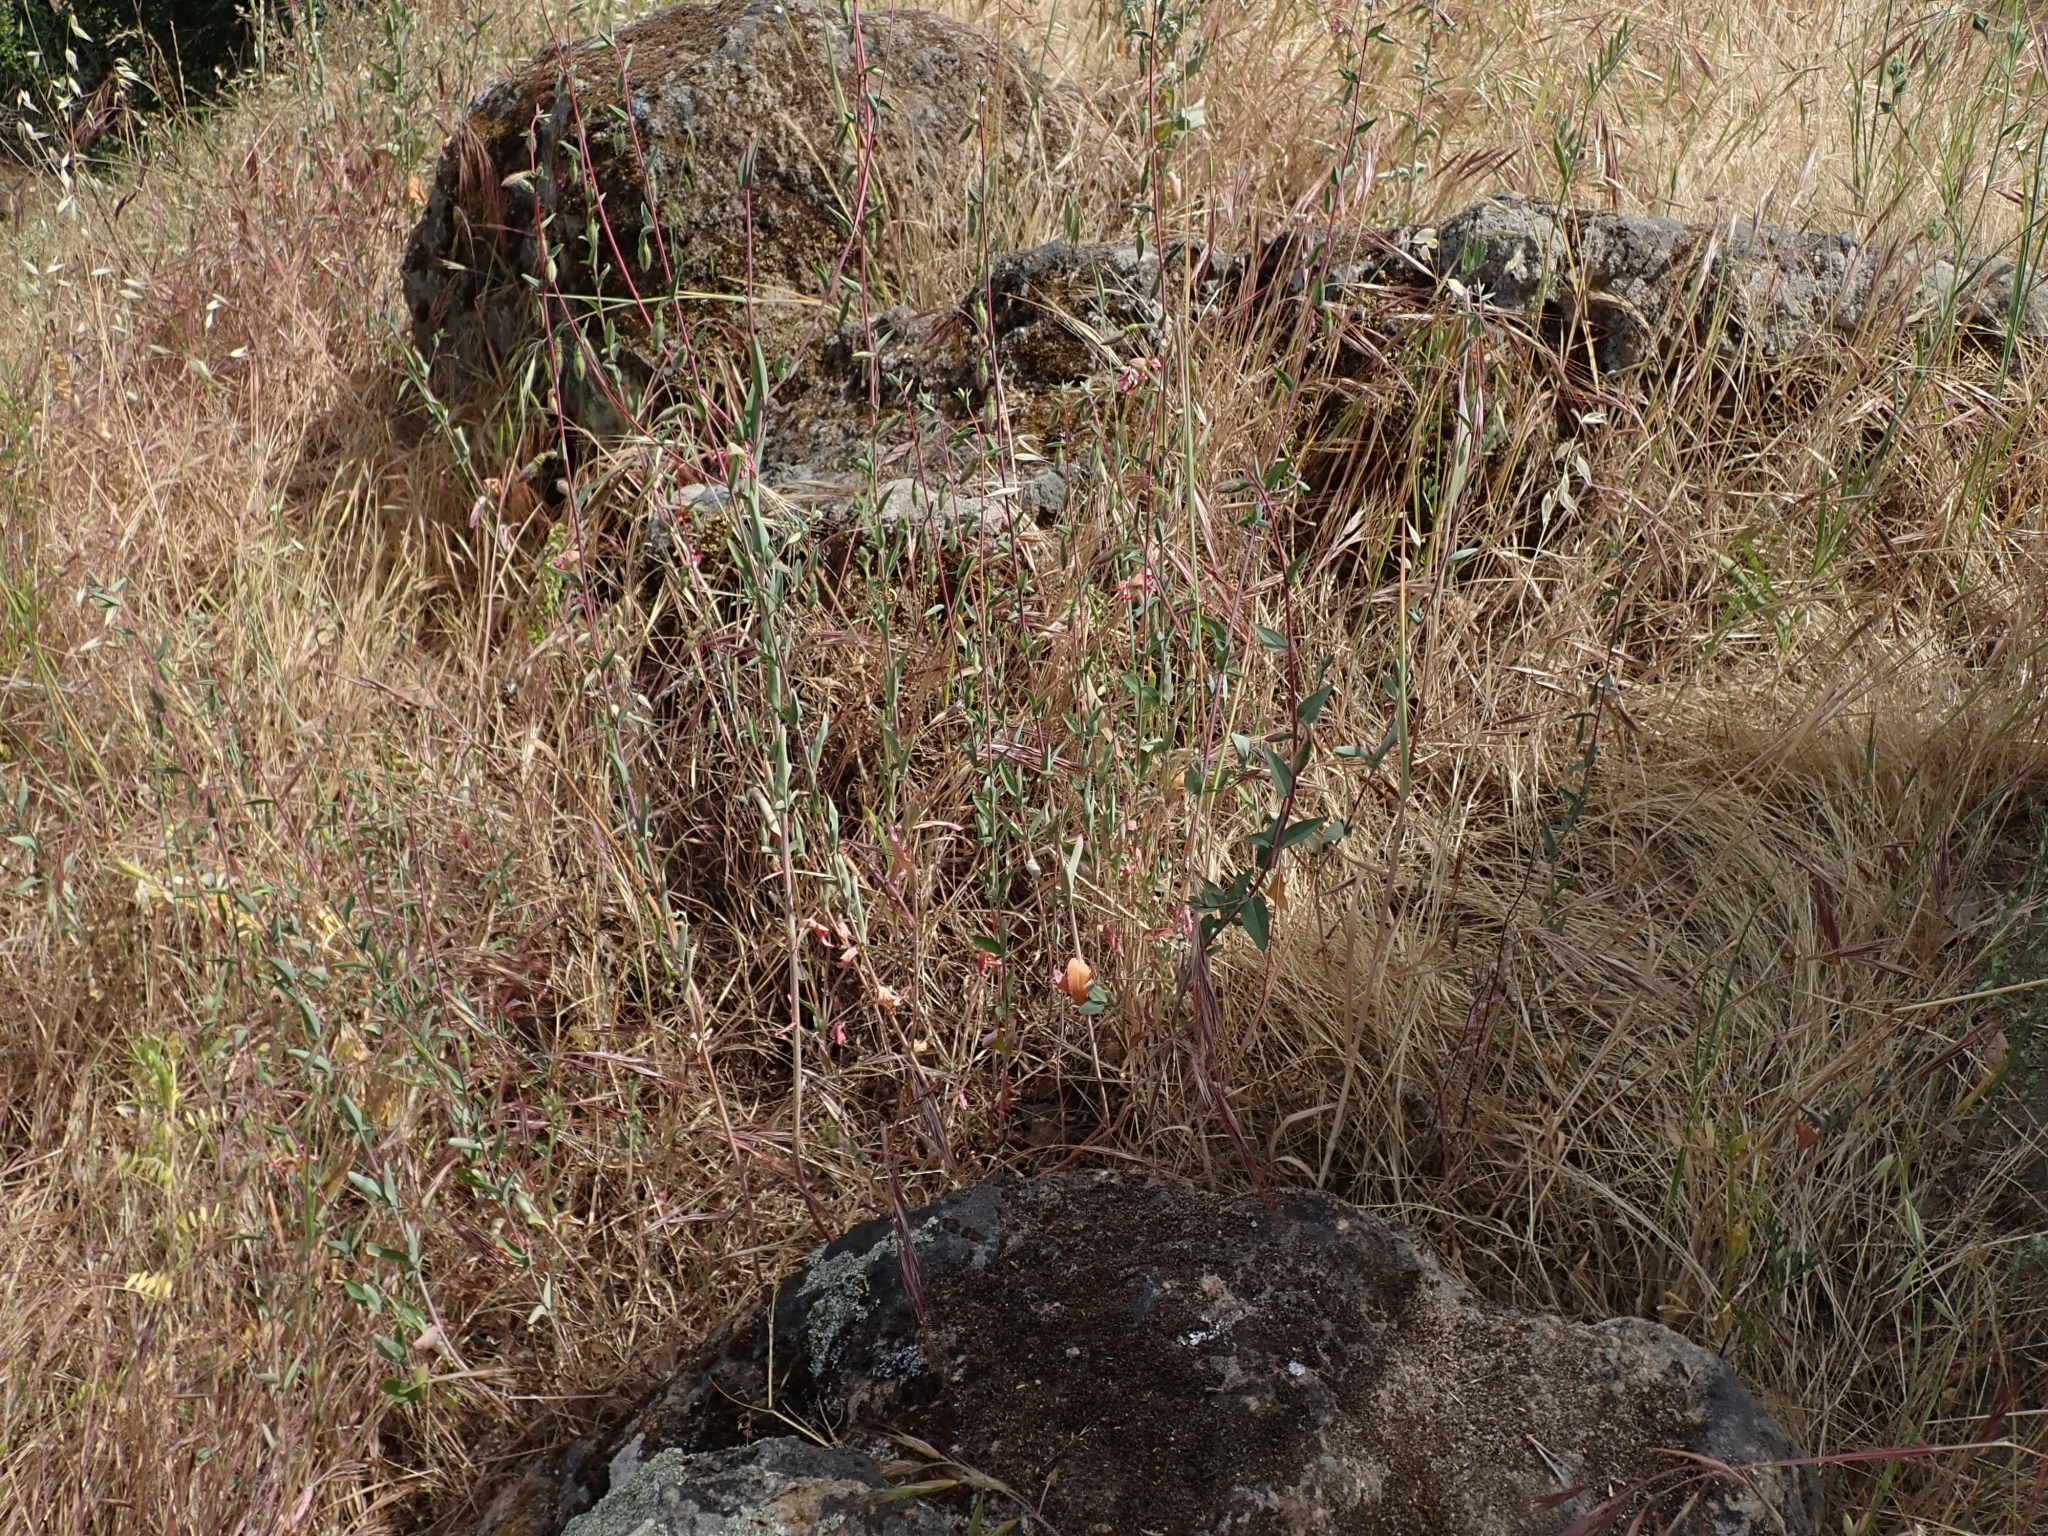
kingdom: Plantae
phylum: Tracheophyta
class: Magnoliopsida
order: Myrtales
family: Onagraceae
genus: Clarkia
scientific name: Clarkia unguiculata
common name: Clarkia
